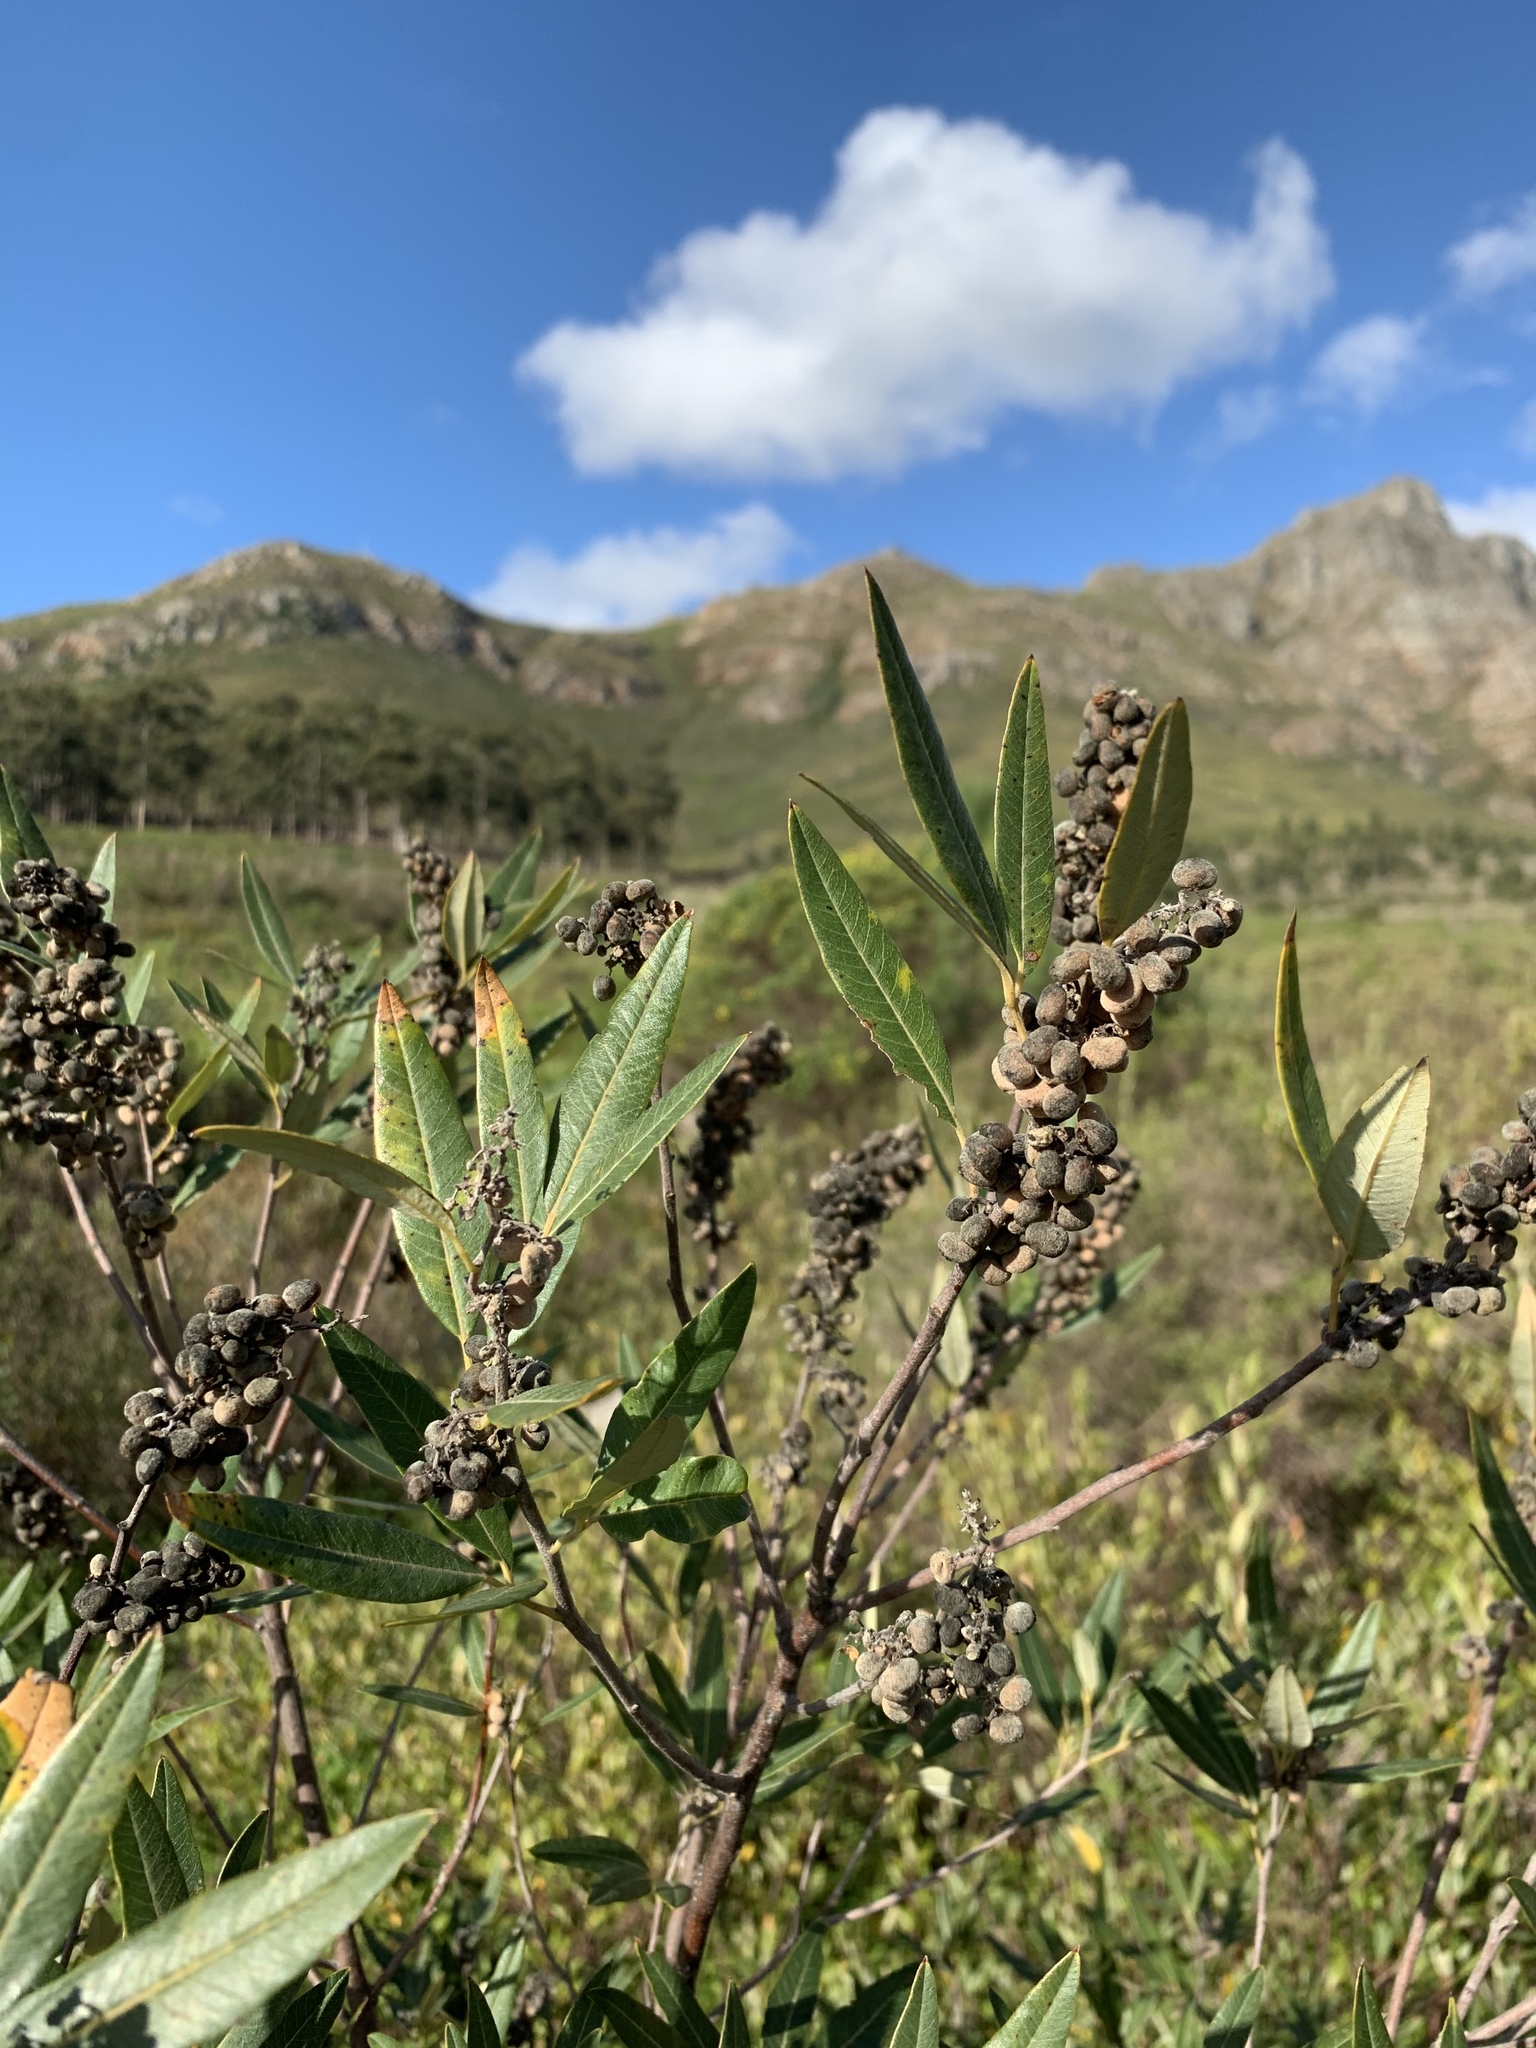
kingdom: Plantae
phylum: Tracheophyta
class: Magnoliopsida
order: Sapindales
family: Anacardiaceae
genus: Searsia
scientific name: Searsia angustifolia
